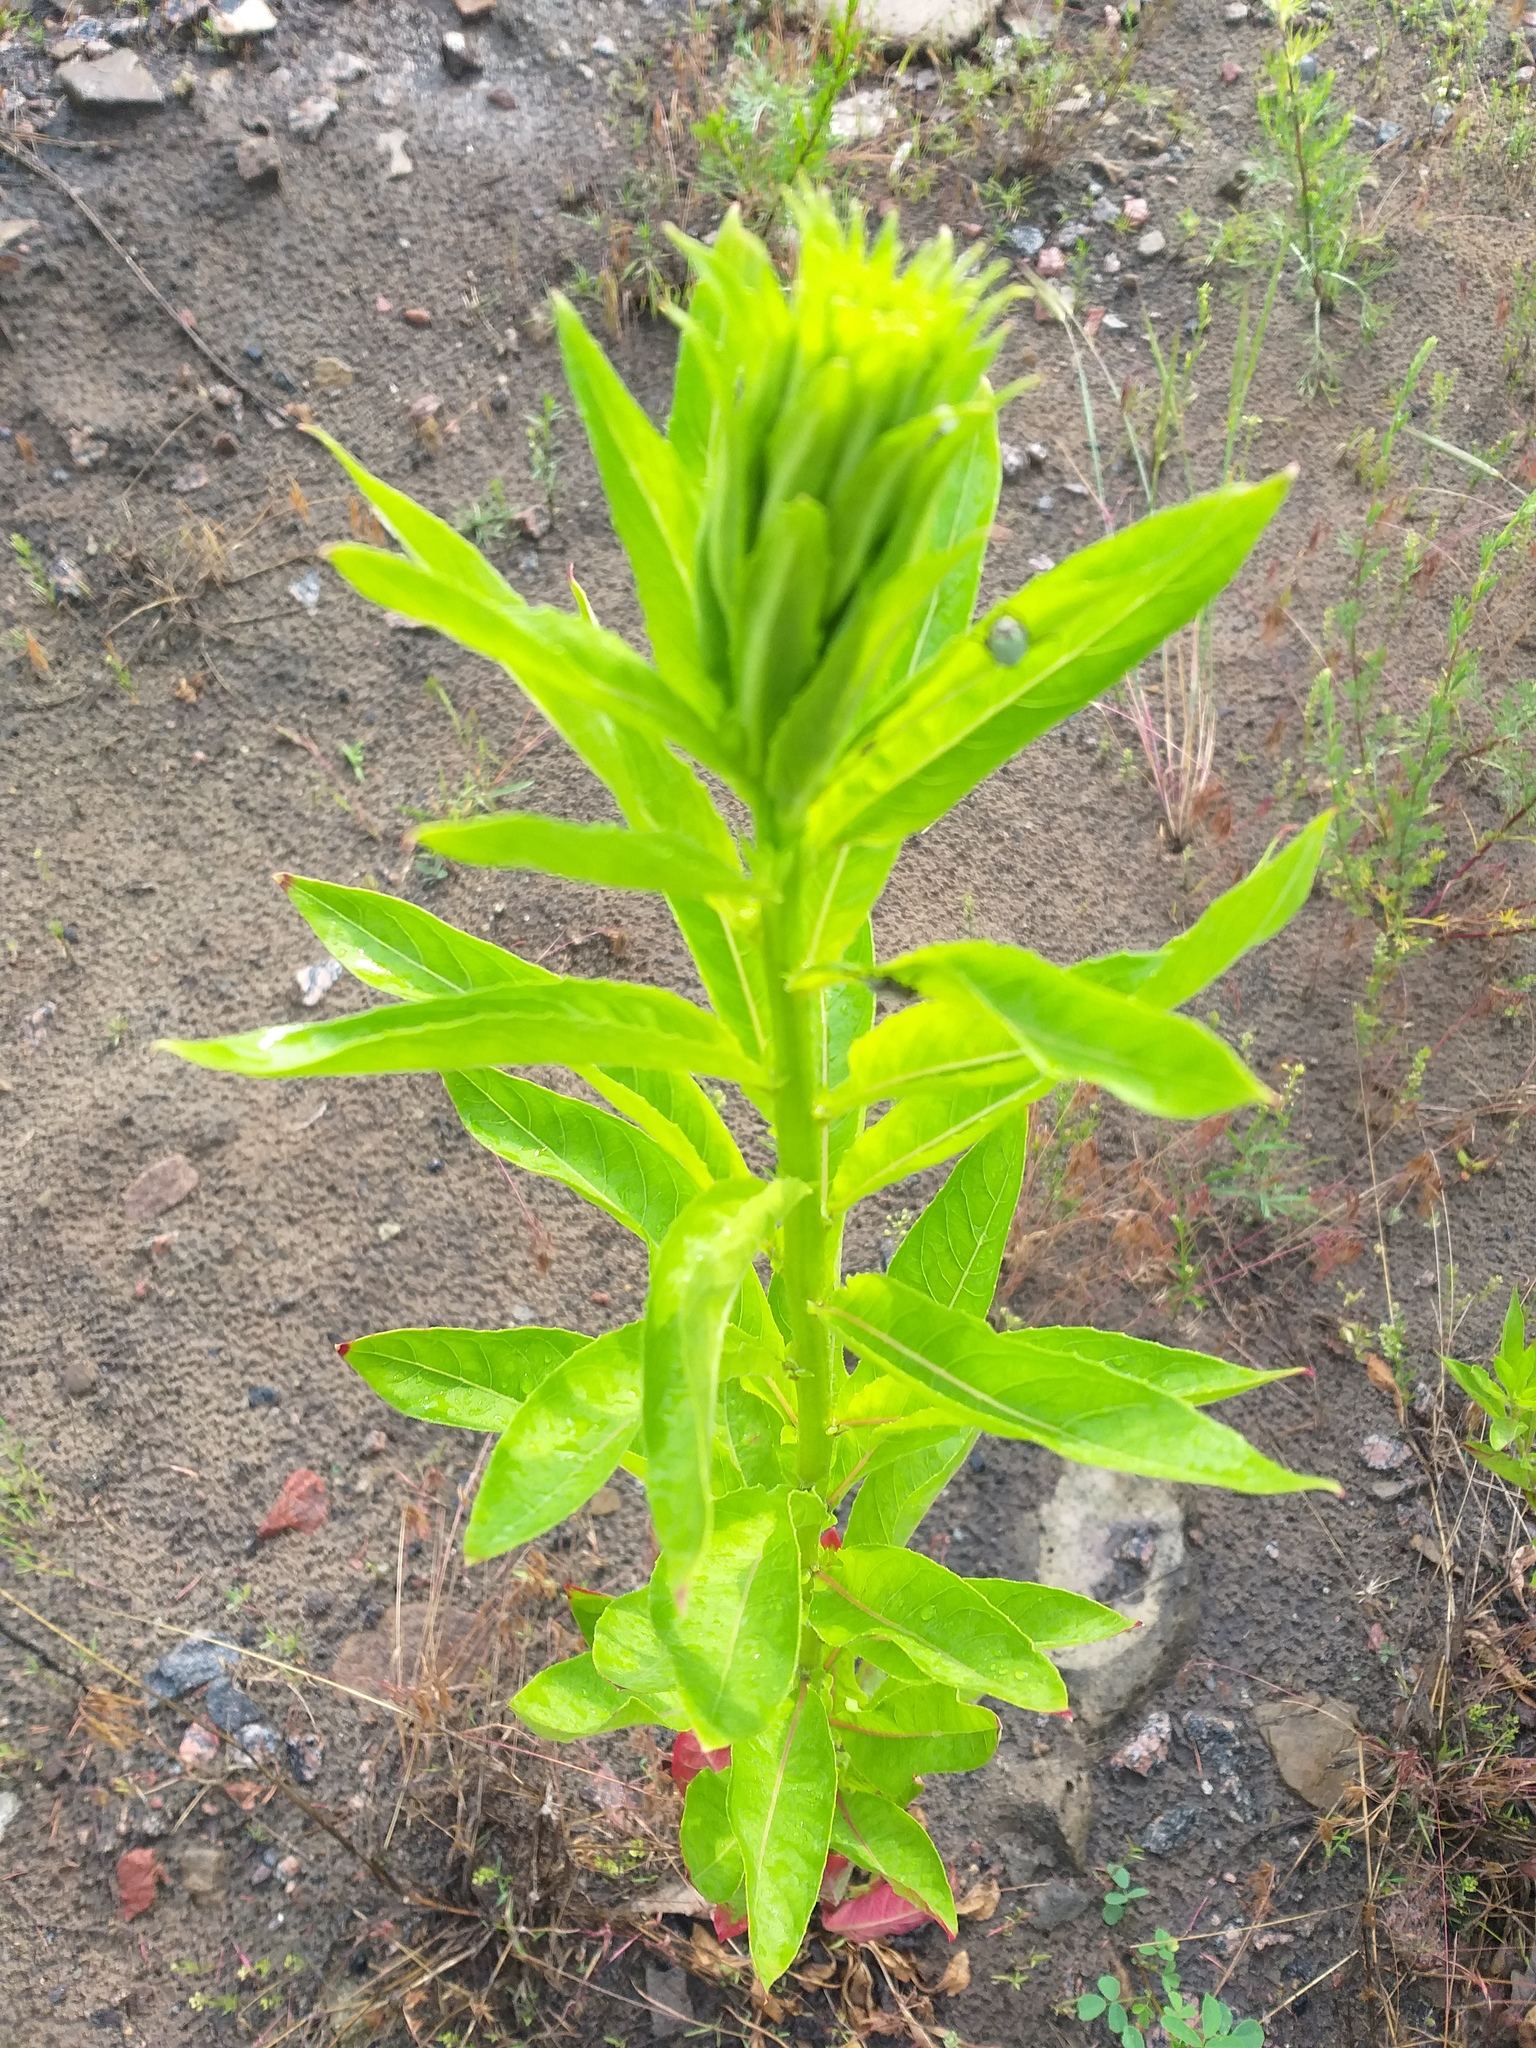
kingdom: Plantae
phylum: Tracheophyta
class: Magnoliopsida
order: Myrtales
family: Onagraceae
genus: Oenothera
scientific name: Oenothera biennis
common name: Common evening-primrose
